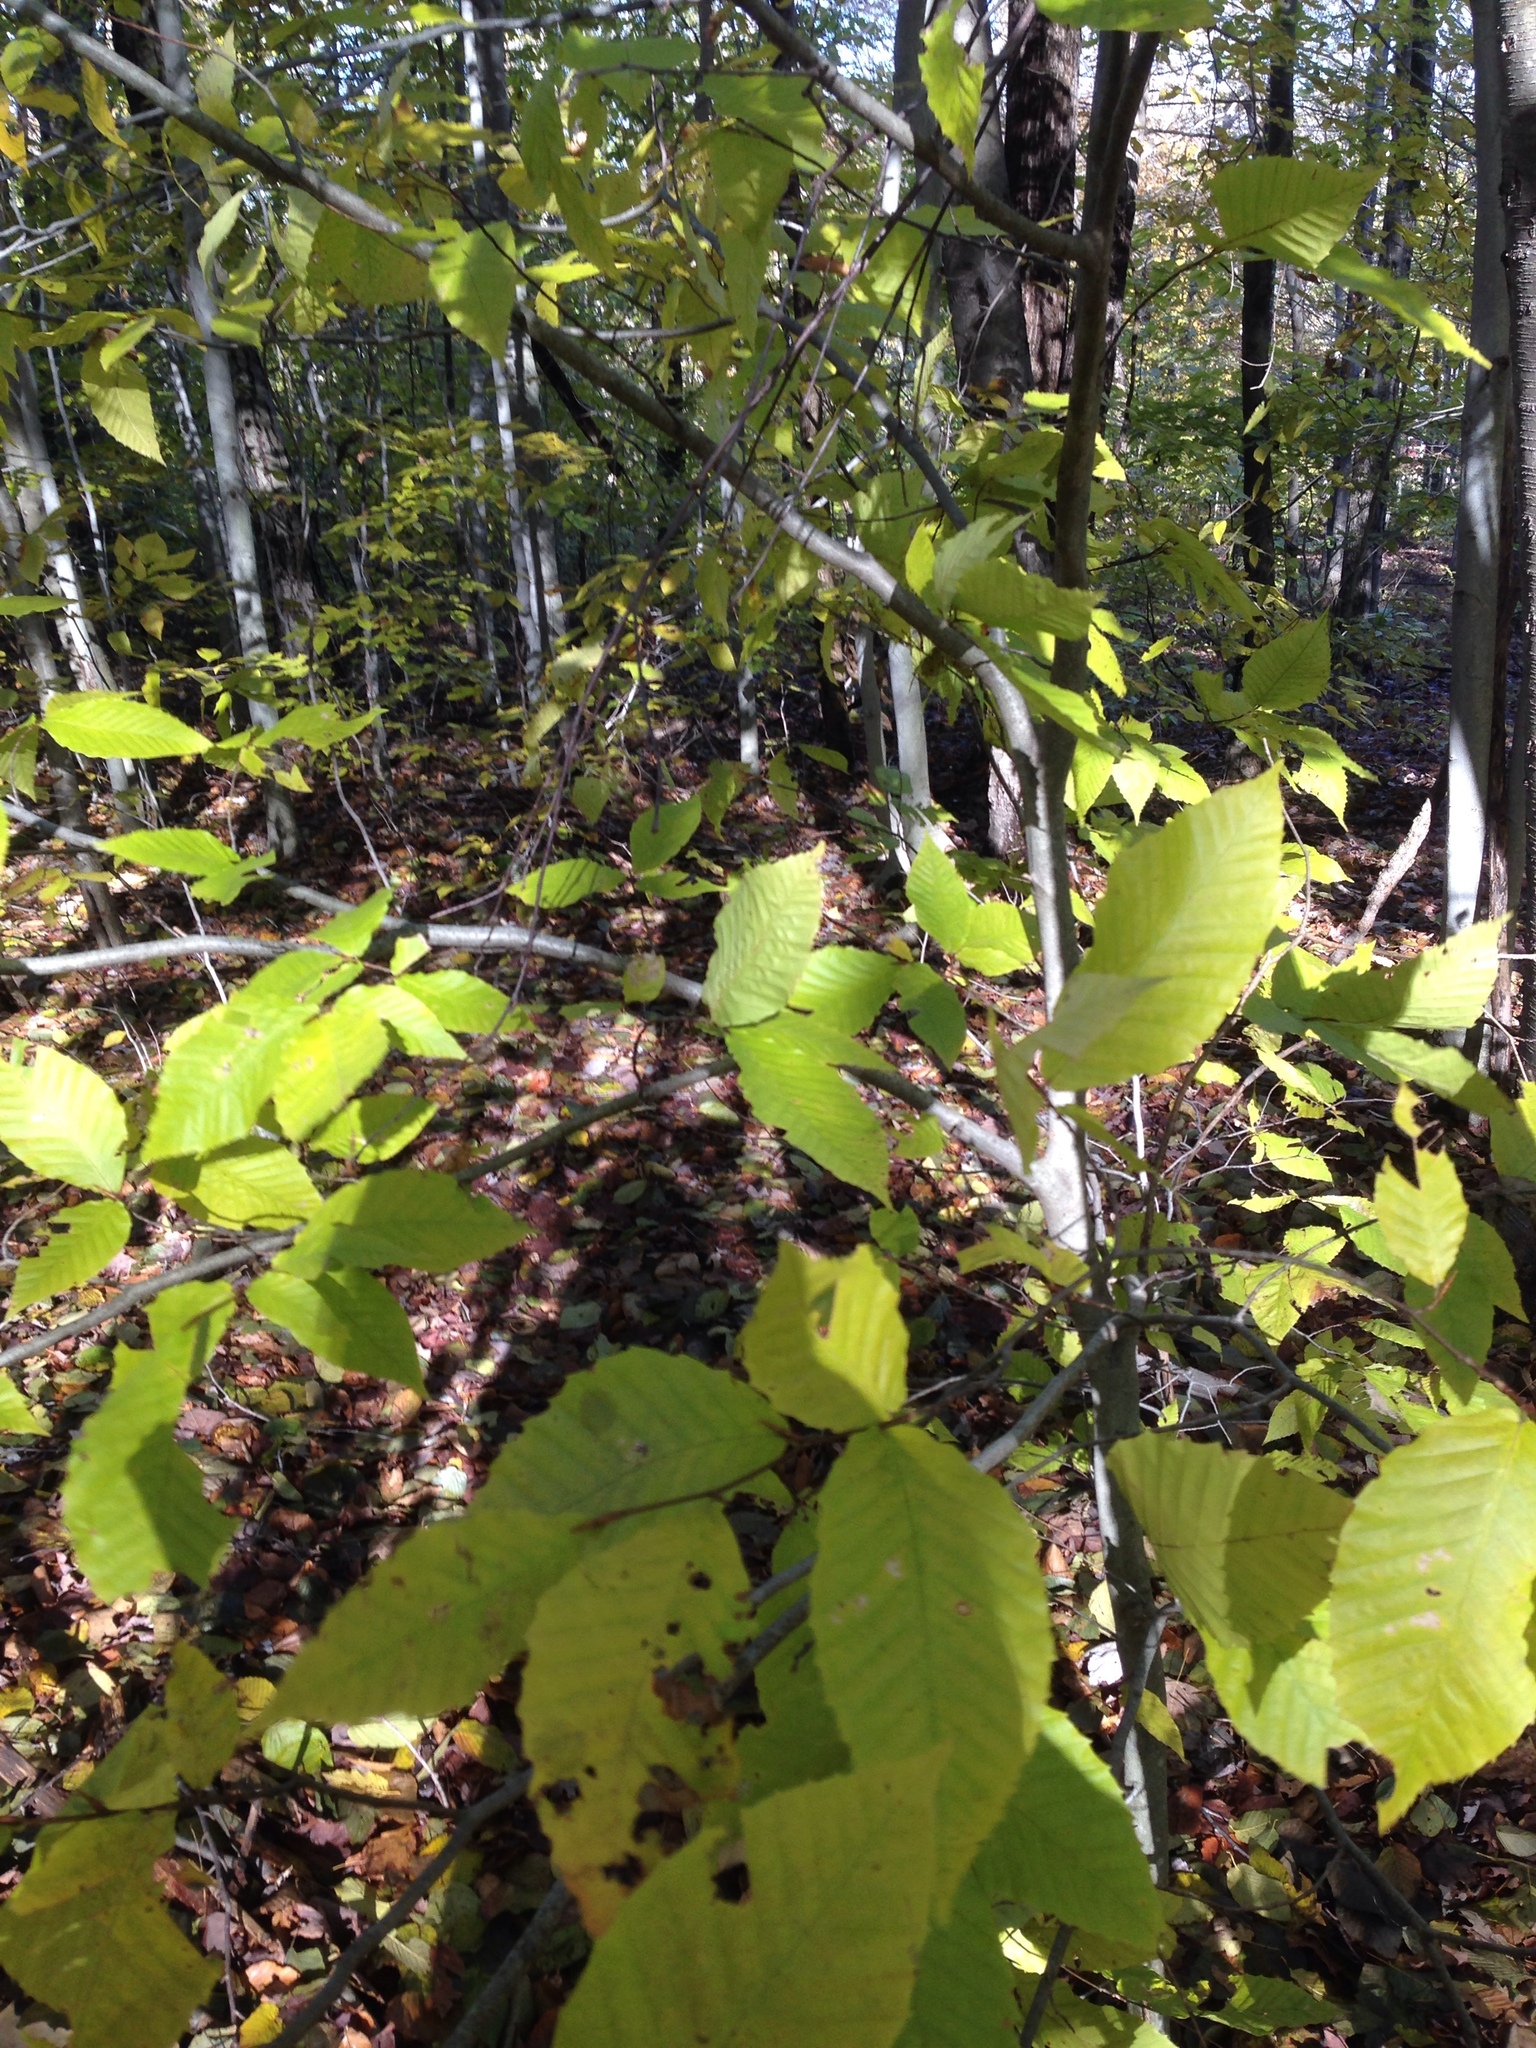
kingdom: Plantae
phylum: Tracheophyta
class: Magnoliopsida
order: Fagales
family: Fagaceae
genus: Fagus
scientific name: Fagus grandifolia
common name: American beech
